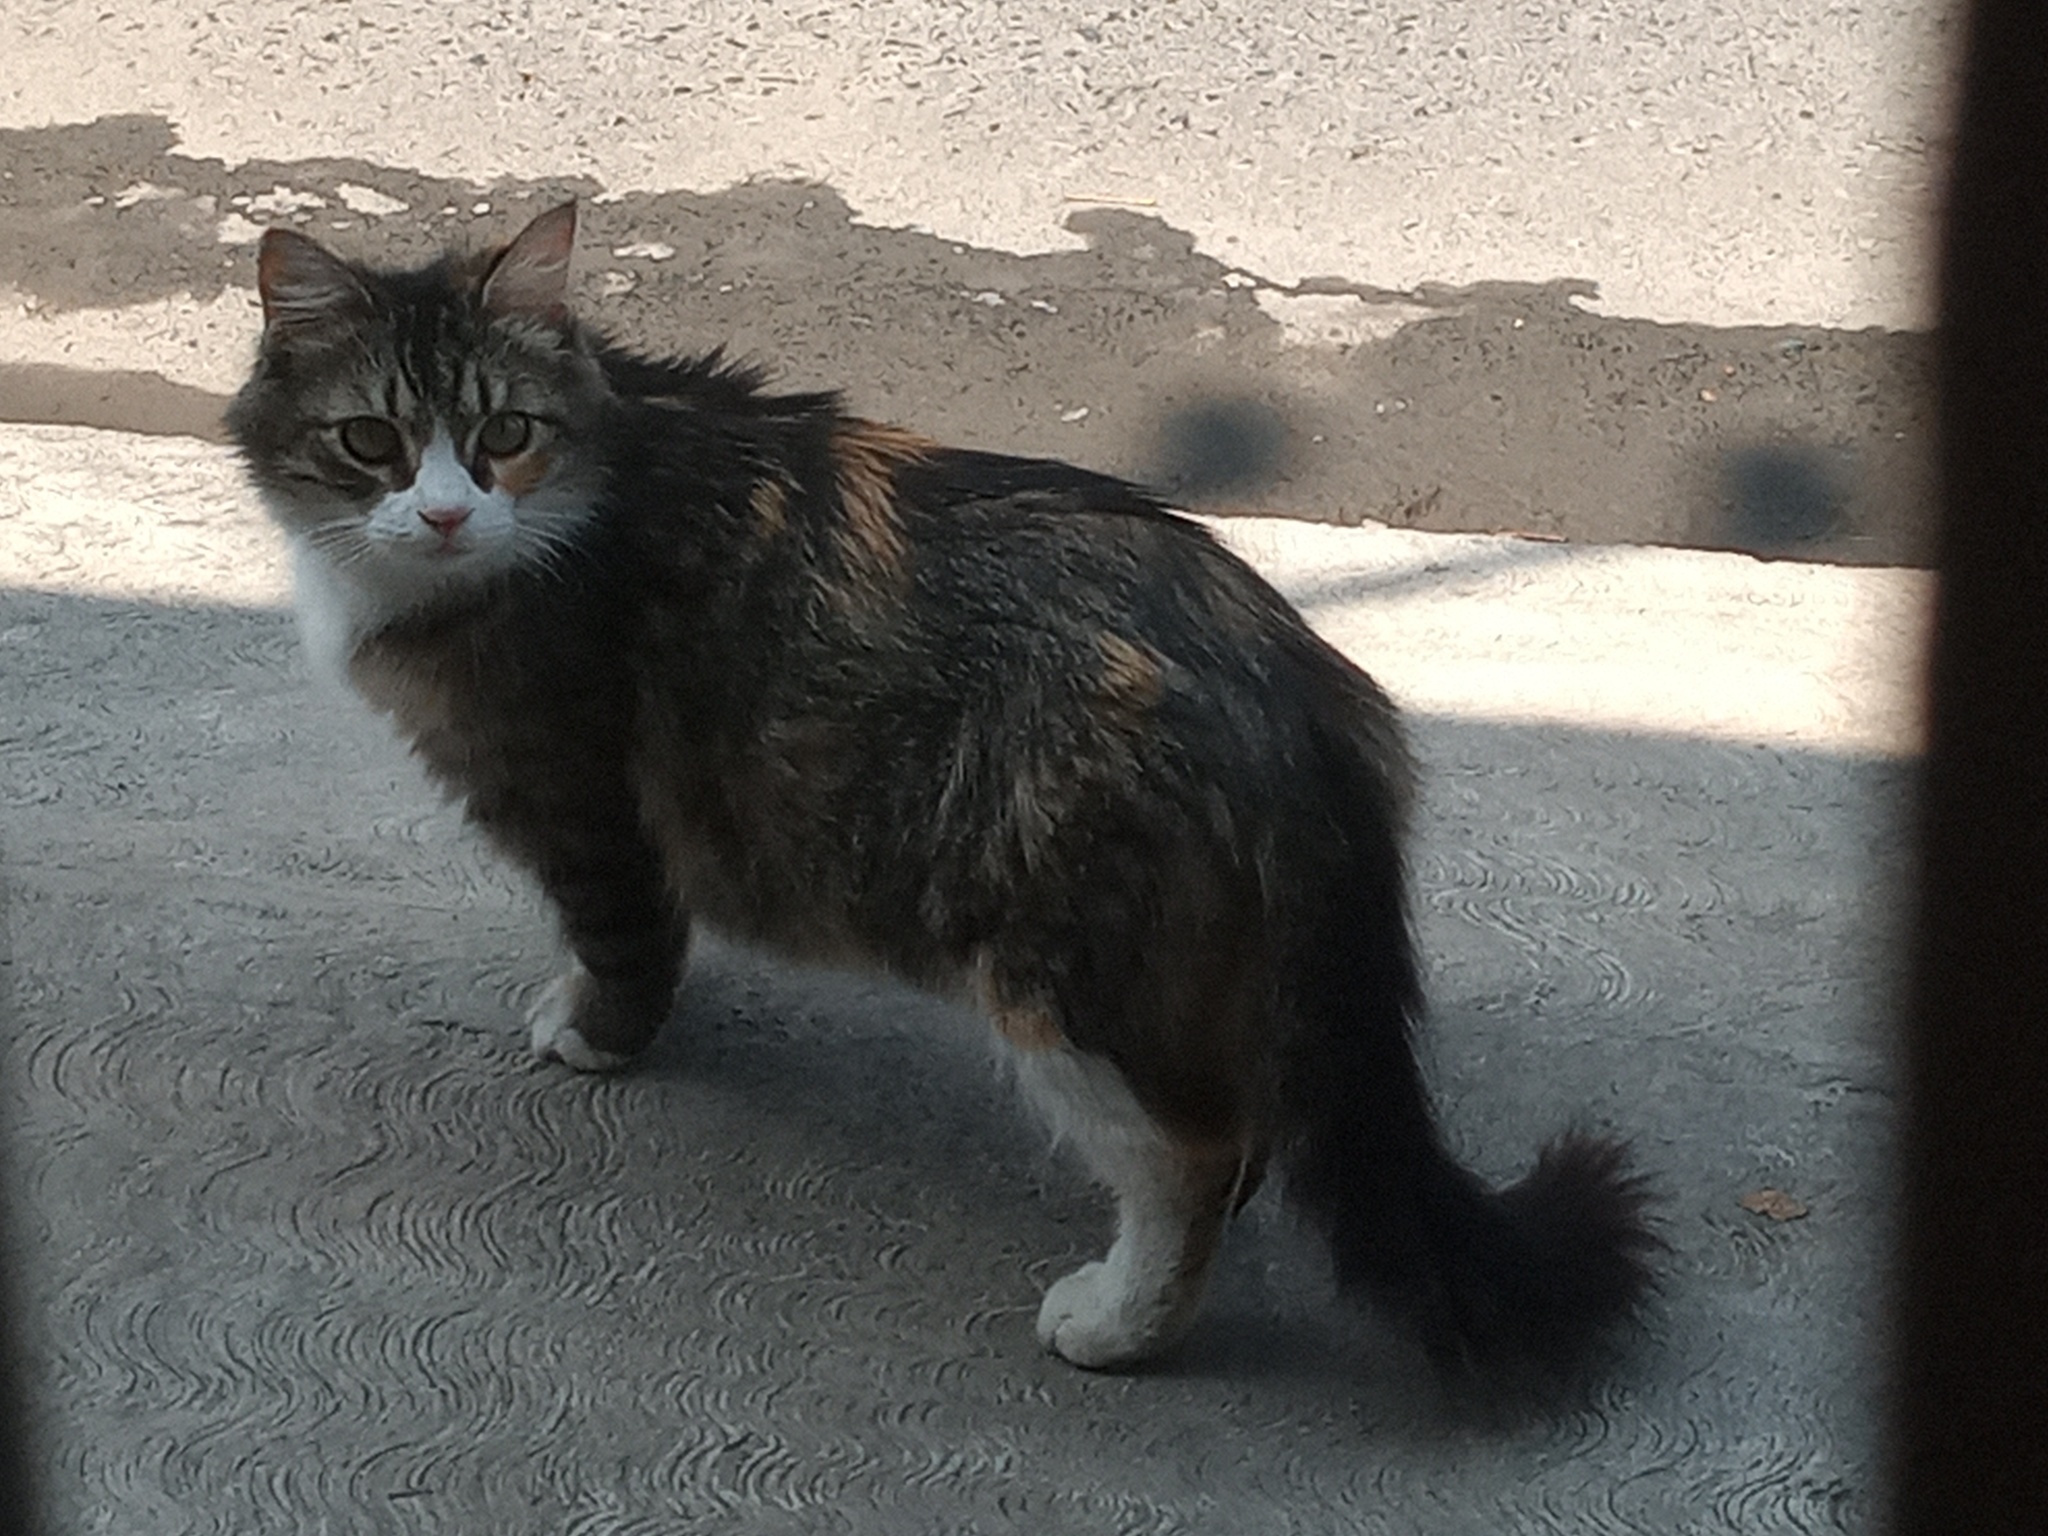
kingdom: Animalia
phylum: Chordata
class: Mammalia
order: Carnivora
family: Felidae
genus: Felis
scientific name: Felis catus
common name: Domestic cat
